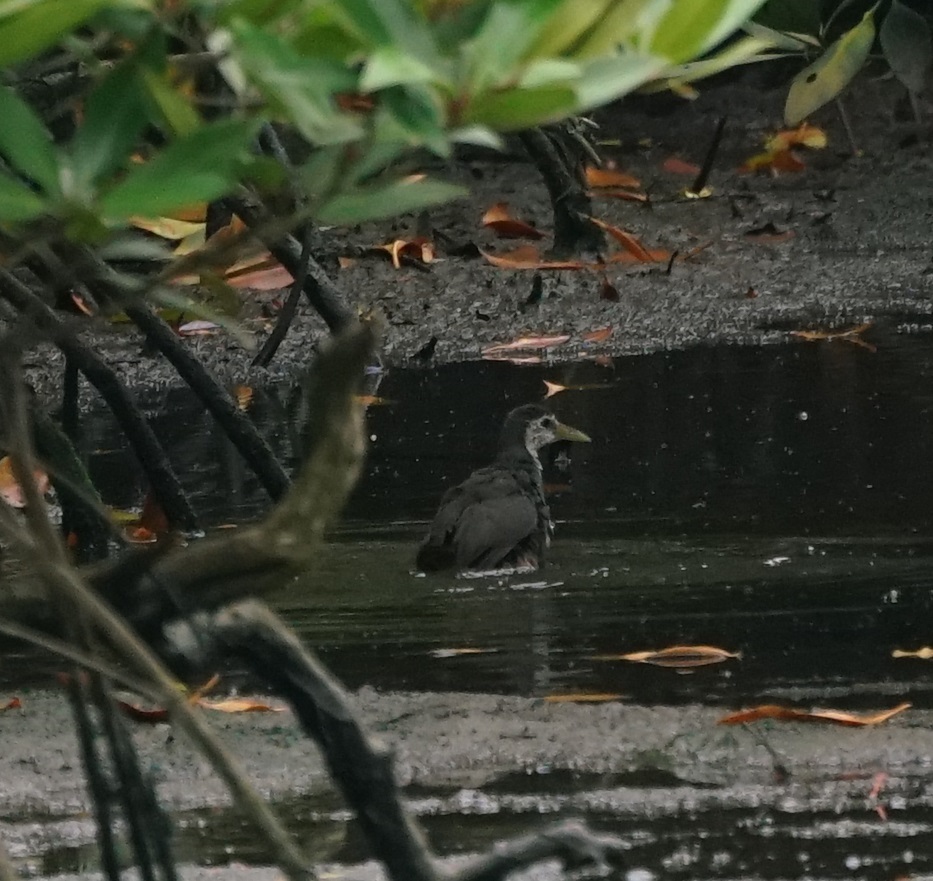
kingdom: Animalia
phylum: Chordata
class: Aves
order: Gruiformes
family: Rallidae
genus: Amaurornis
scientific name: Amaurornis phoenicurus
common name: White-breasted waterhen
